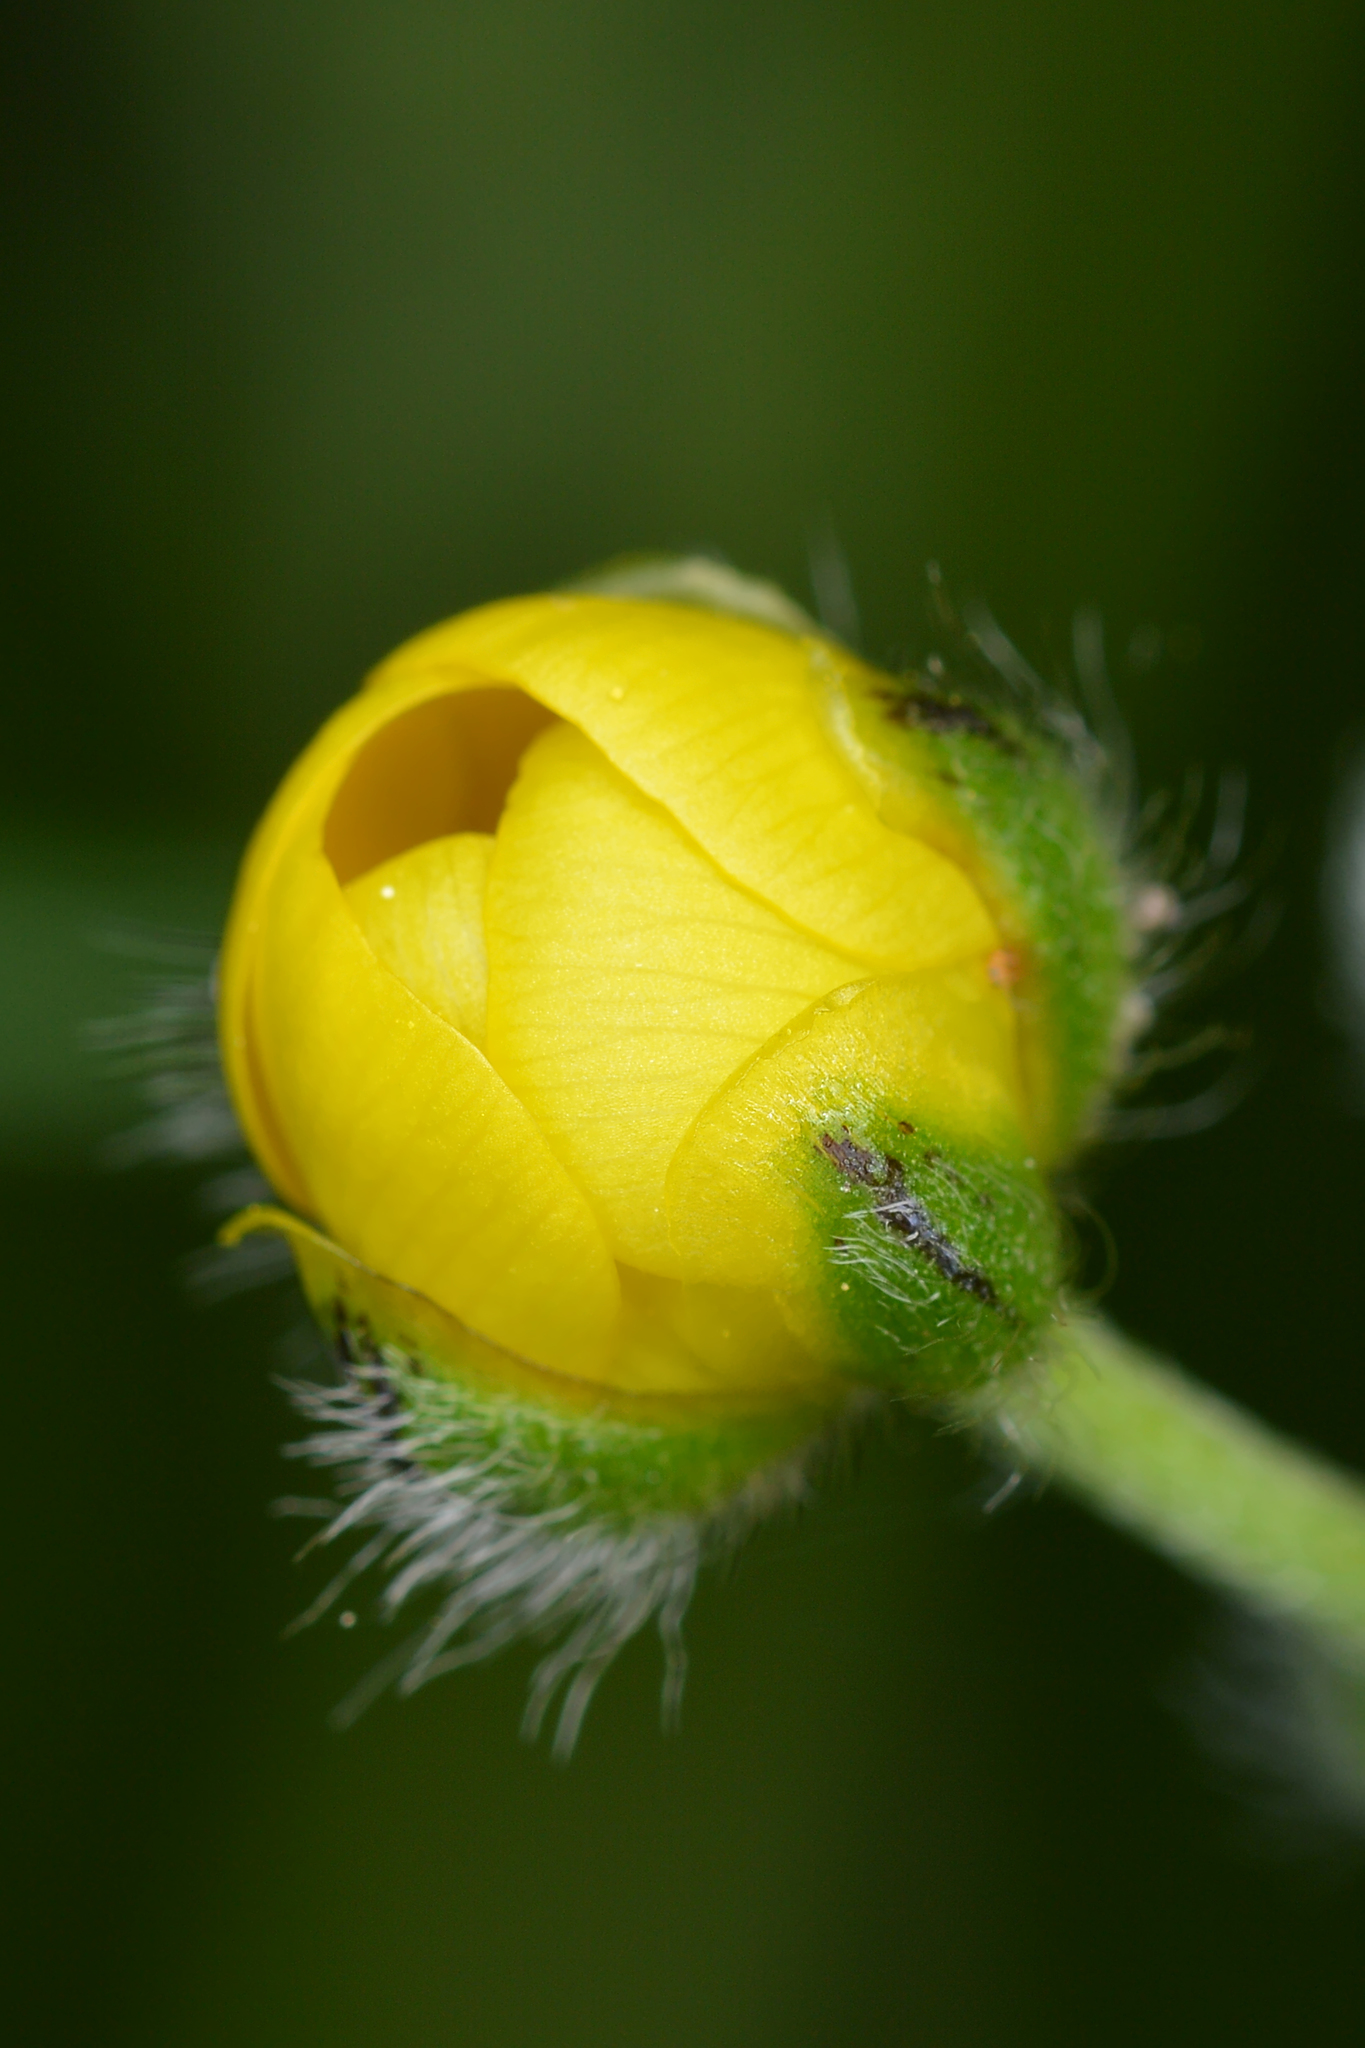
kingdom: Plantae
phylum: Tracheophyta
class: Magnoliopsida
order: Ranunculales
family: Ranunculaceae
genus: Ranunculus
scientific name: Ranunculus acris
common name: Meadow buttercup
